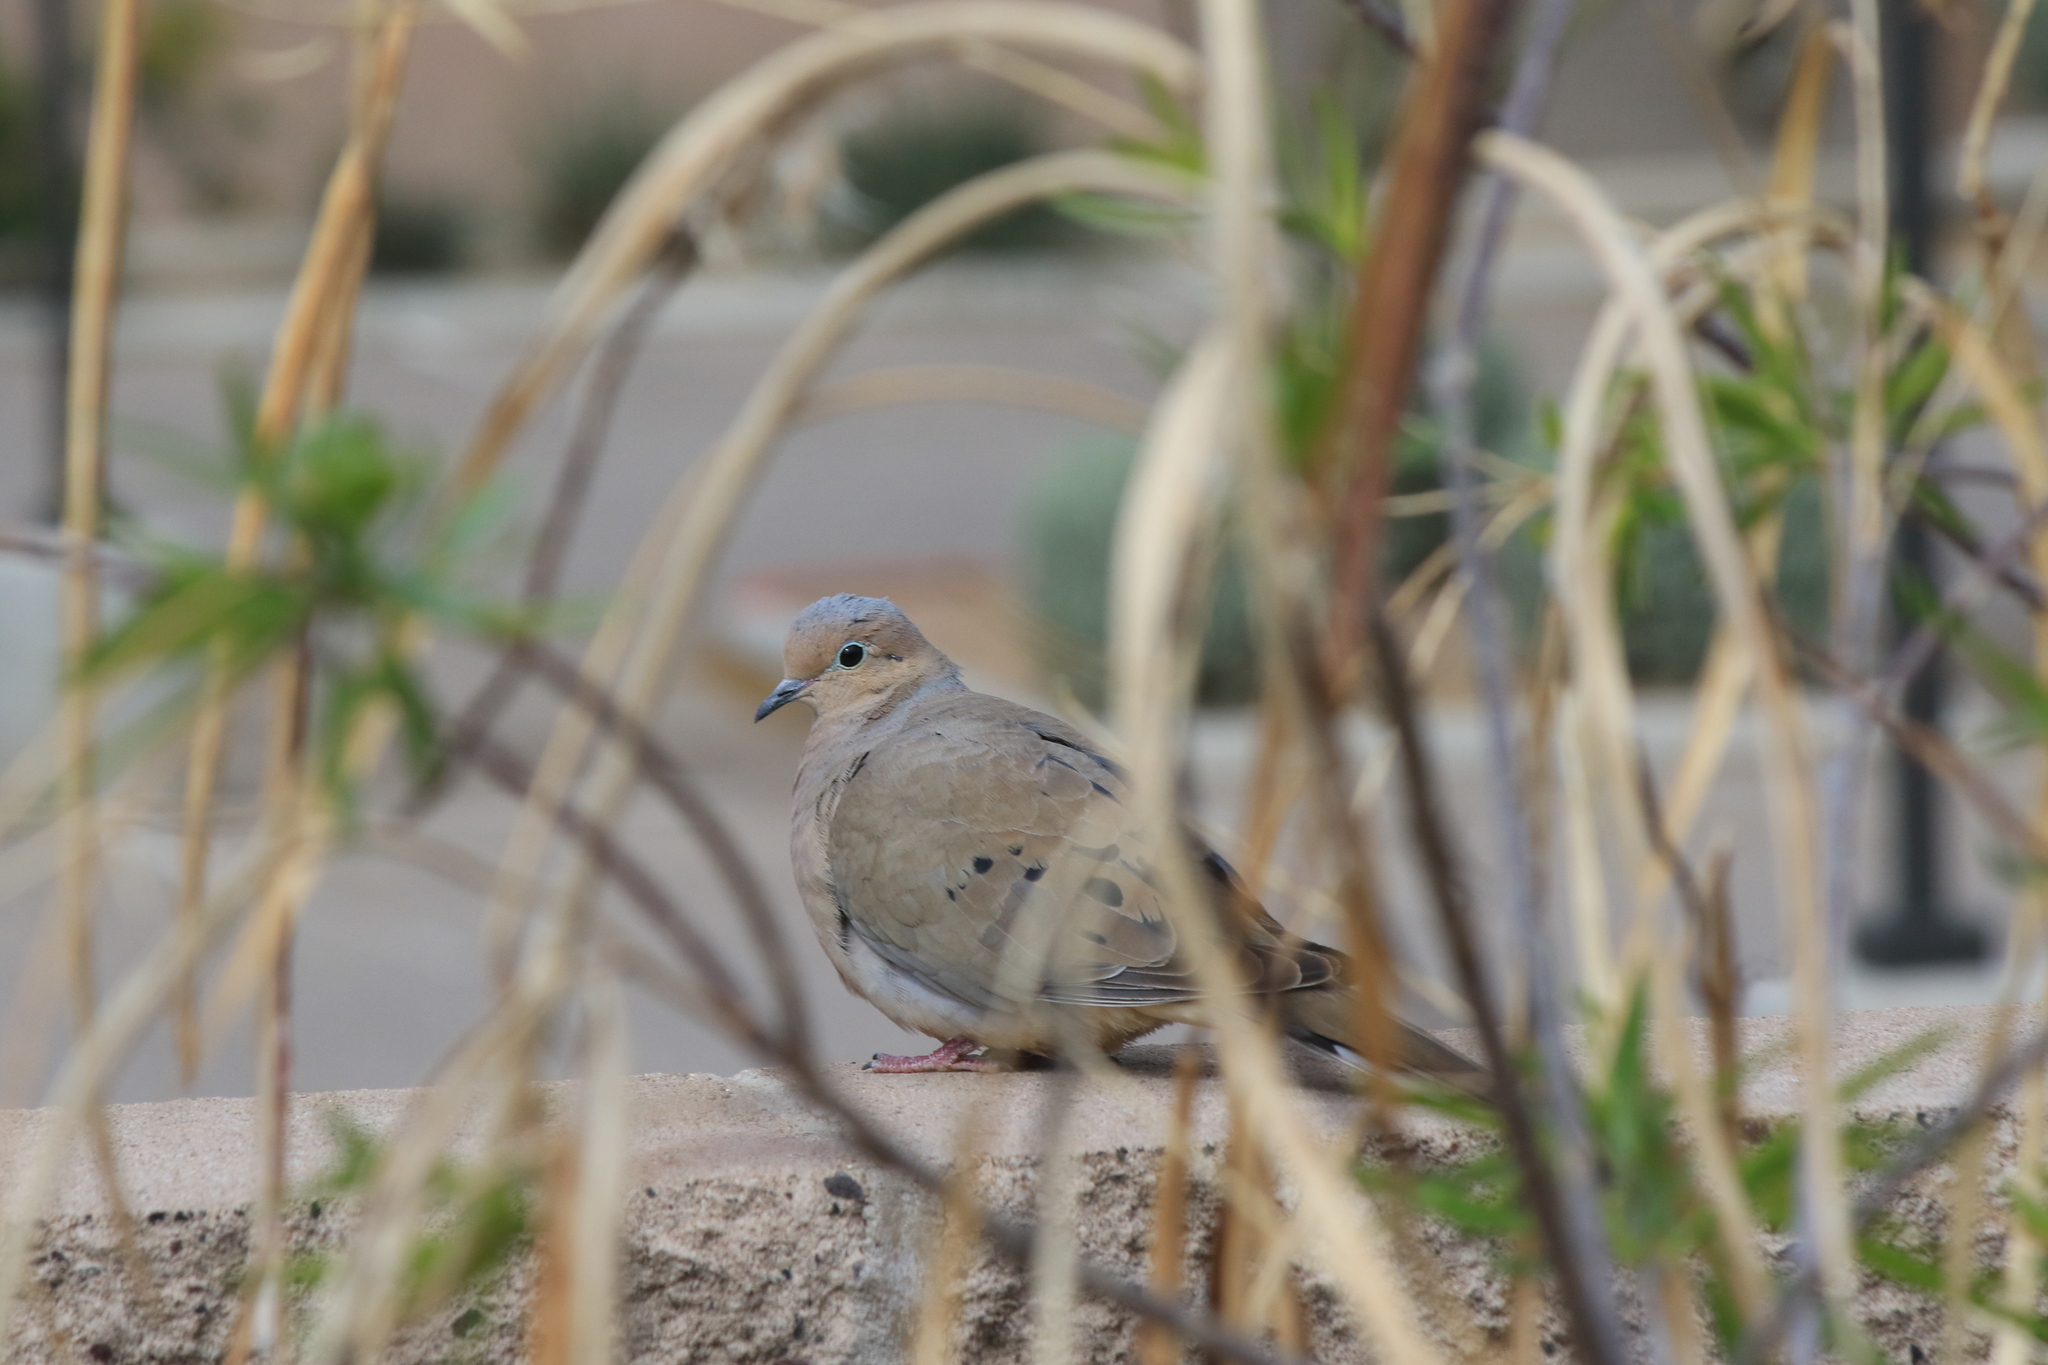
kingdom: Animalia
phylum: Chordata
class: Aves
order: Columbiformes
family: Columbidae
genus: Zenaida
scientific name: Zenaida macroura
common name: Mourning dove
